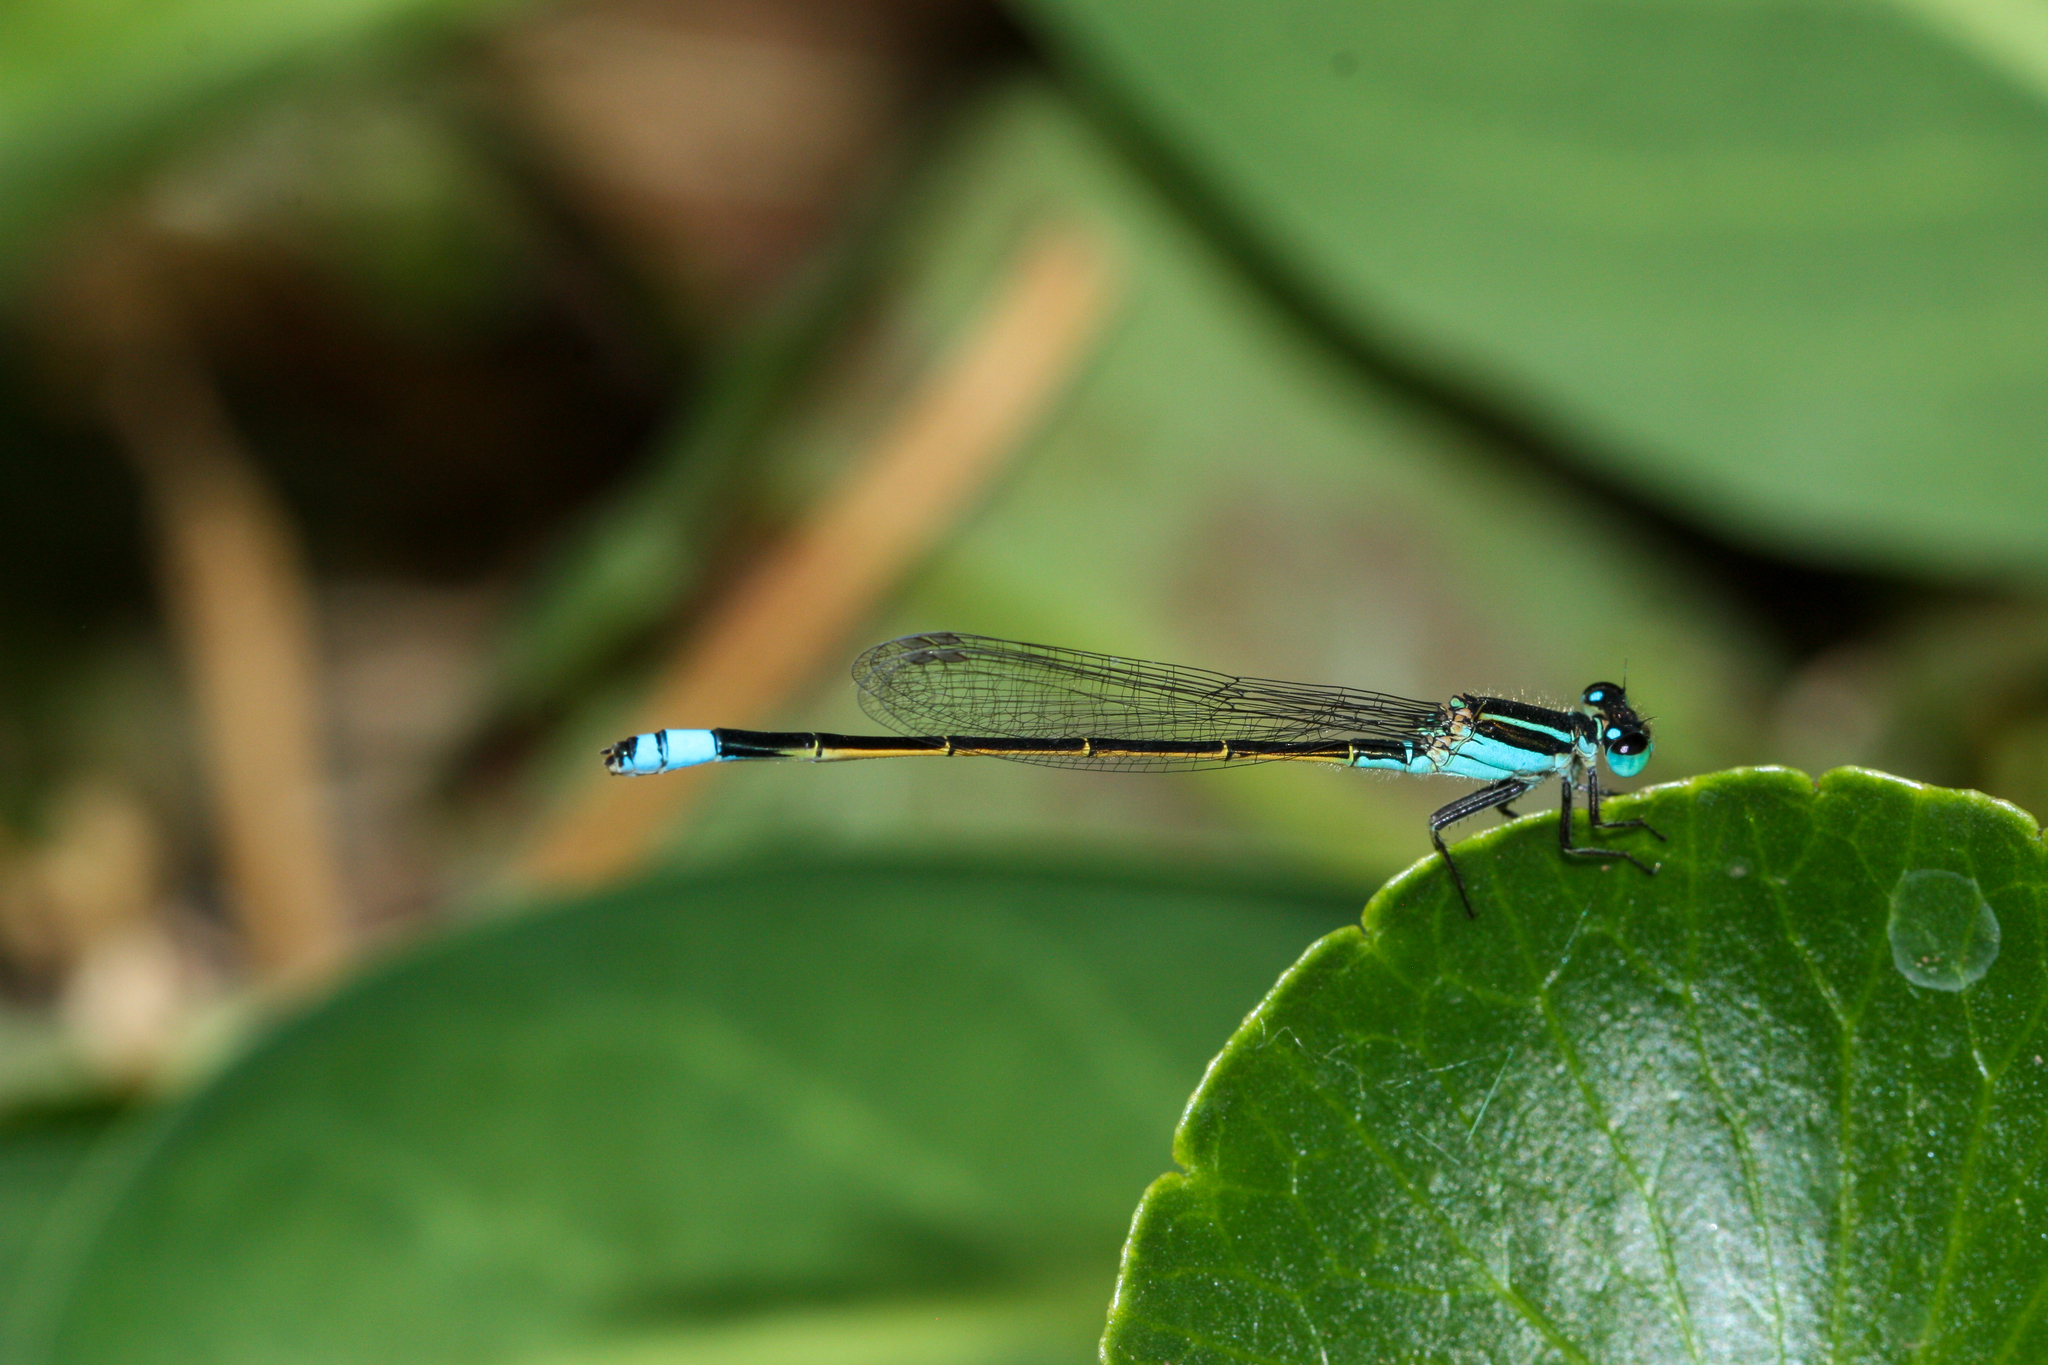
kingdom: Animalia
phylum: Arthropoda
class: Insecta
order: Odonata
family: Coenagrionidae
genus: Ischnura
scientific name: Ischnura ramburii
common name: Rambur's forktail
